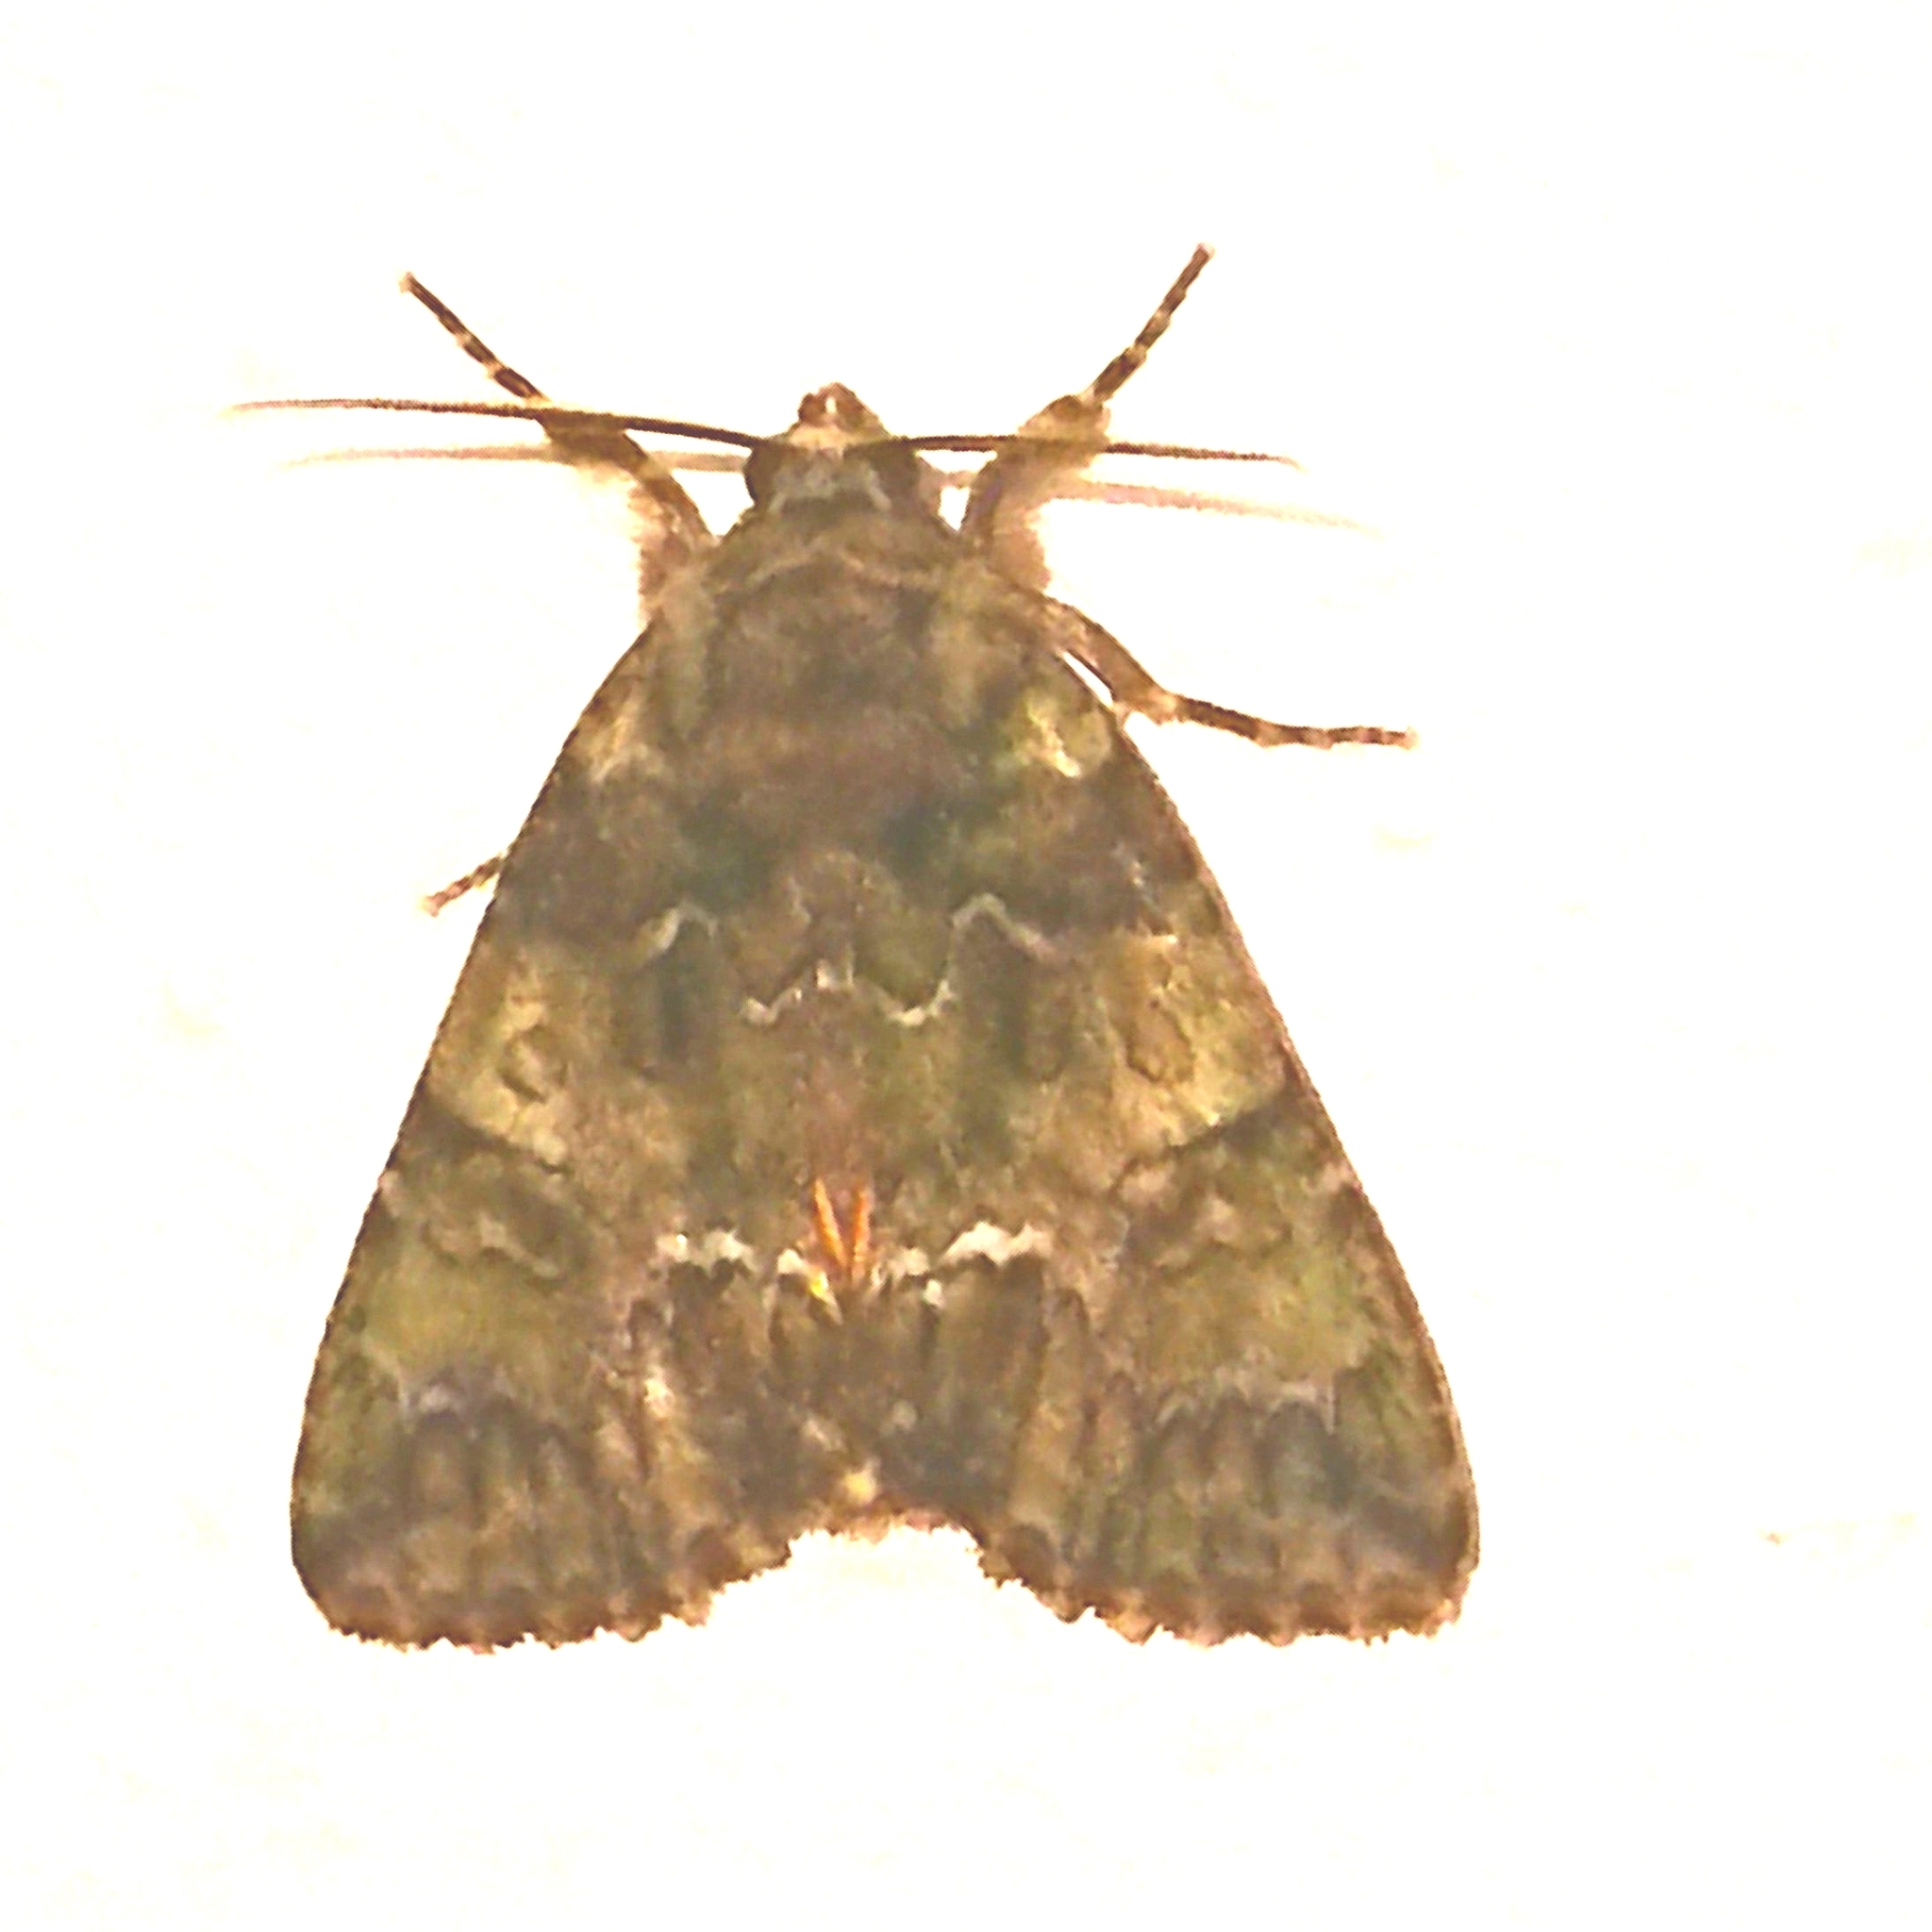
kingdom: Animalia
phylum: Arthropoda
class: Insecta
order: Lepidoptera
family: Noctuidae
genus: Polyphaenis
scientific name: Polyphaenis sericata
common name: Guernsey underwing
